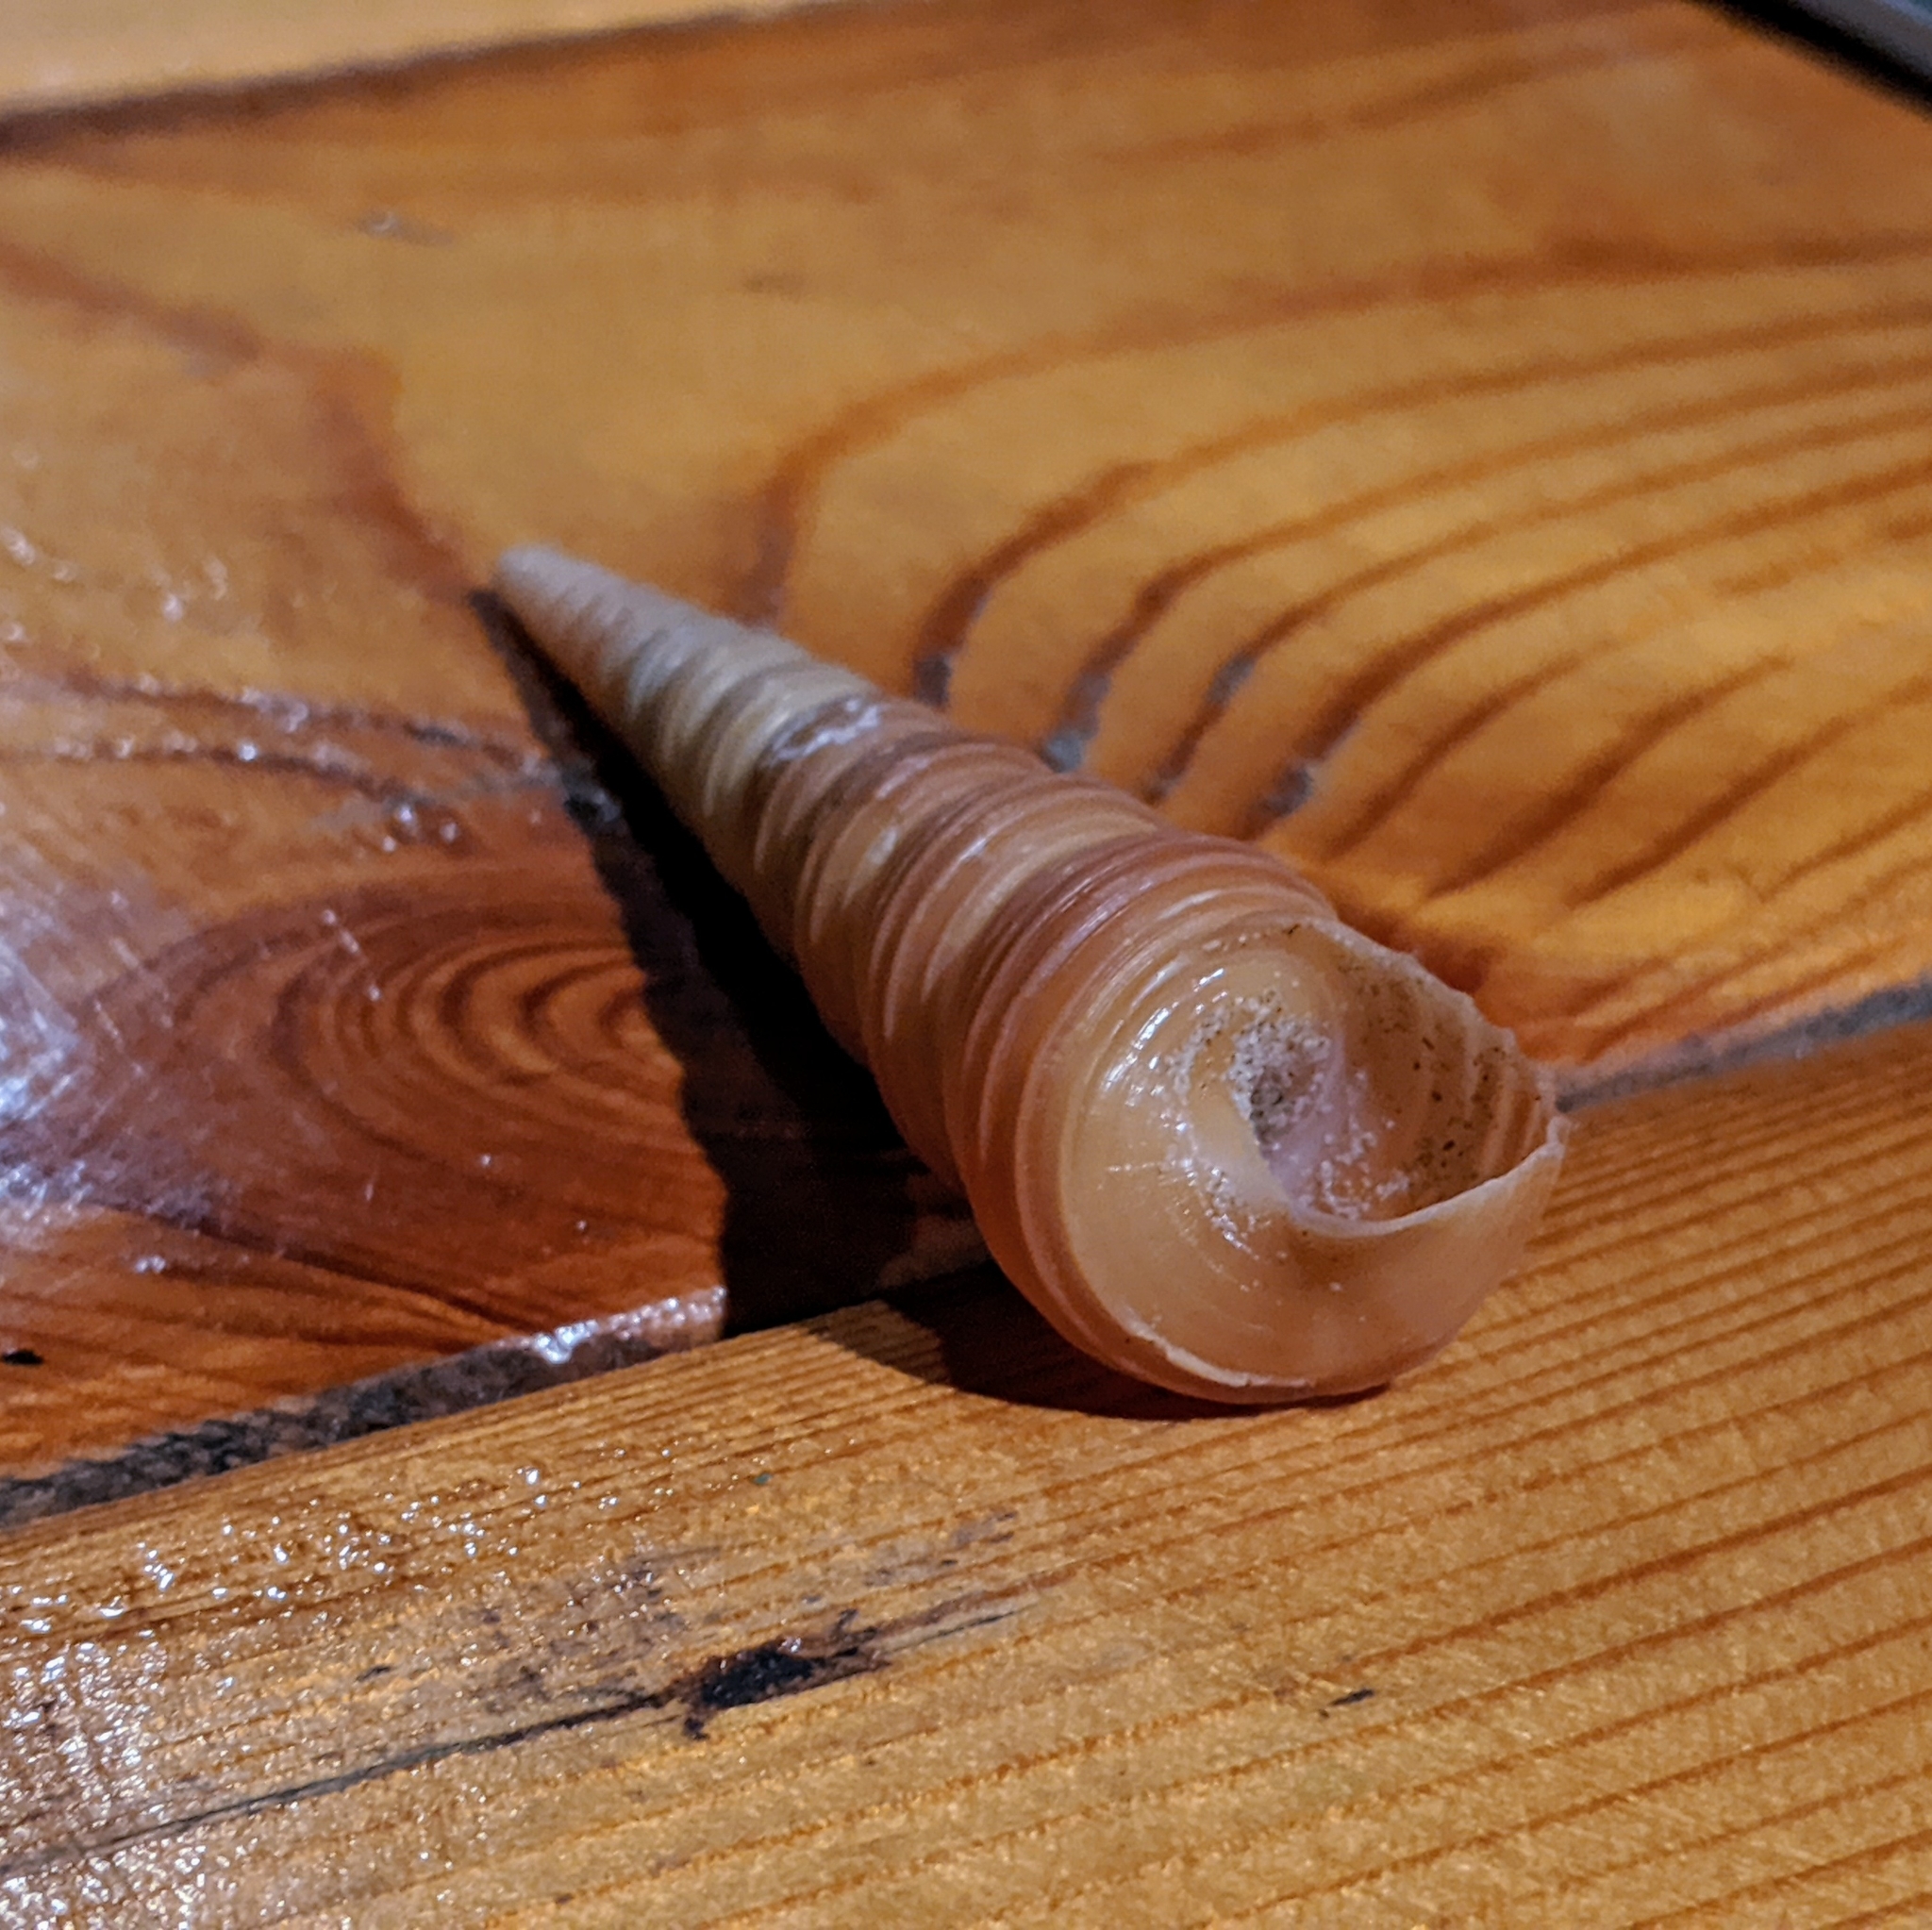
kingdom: Animalia
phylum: Mollusca
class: Gastropoda
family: Turritellidae
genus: Turritella
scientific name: Turritella terebra
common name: Auger screw shell
